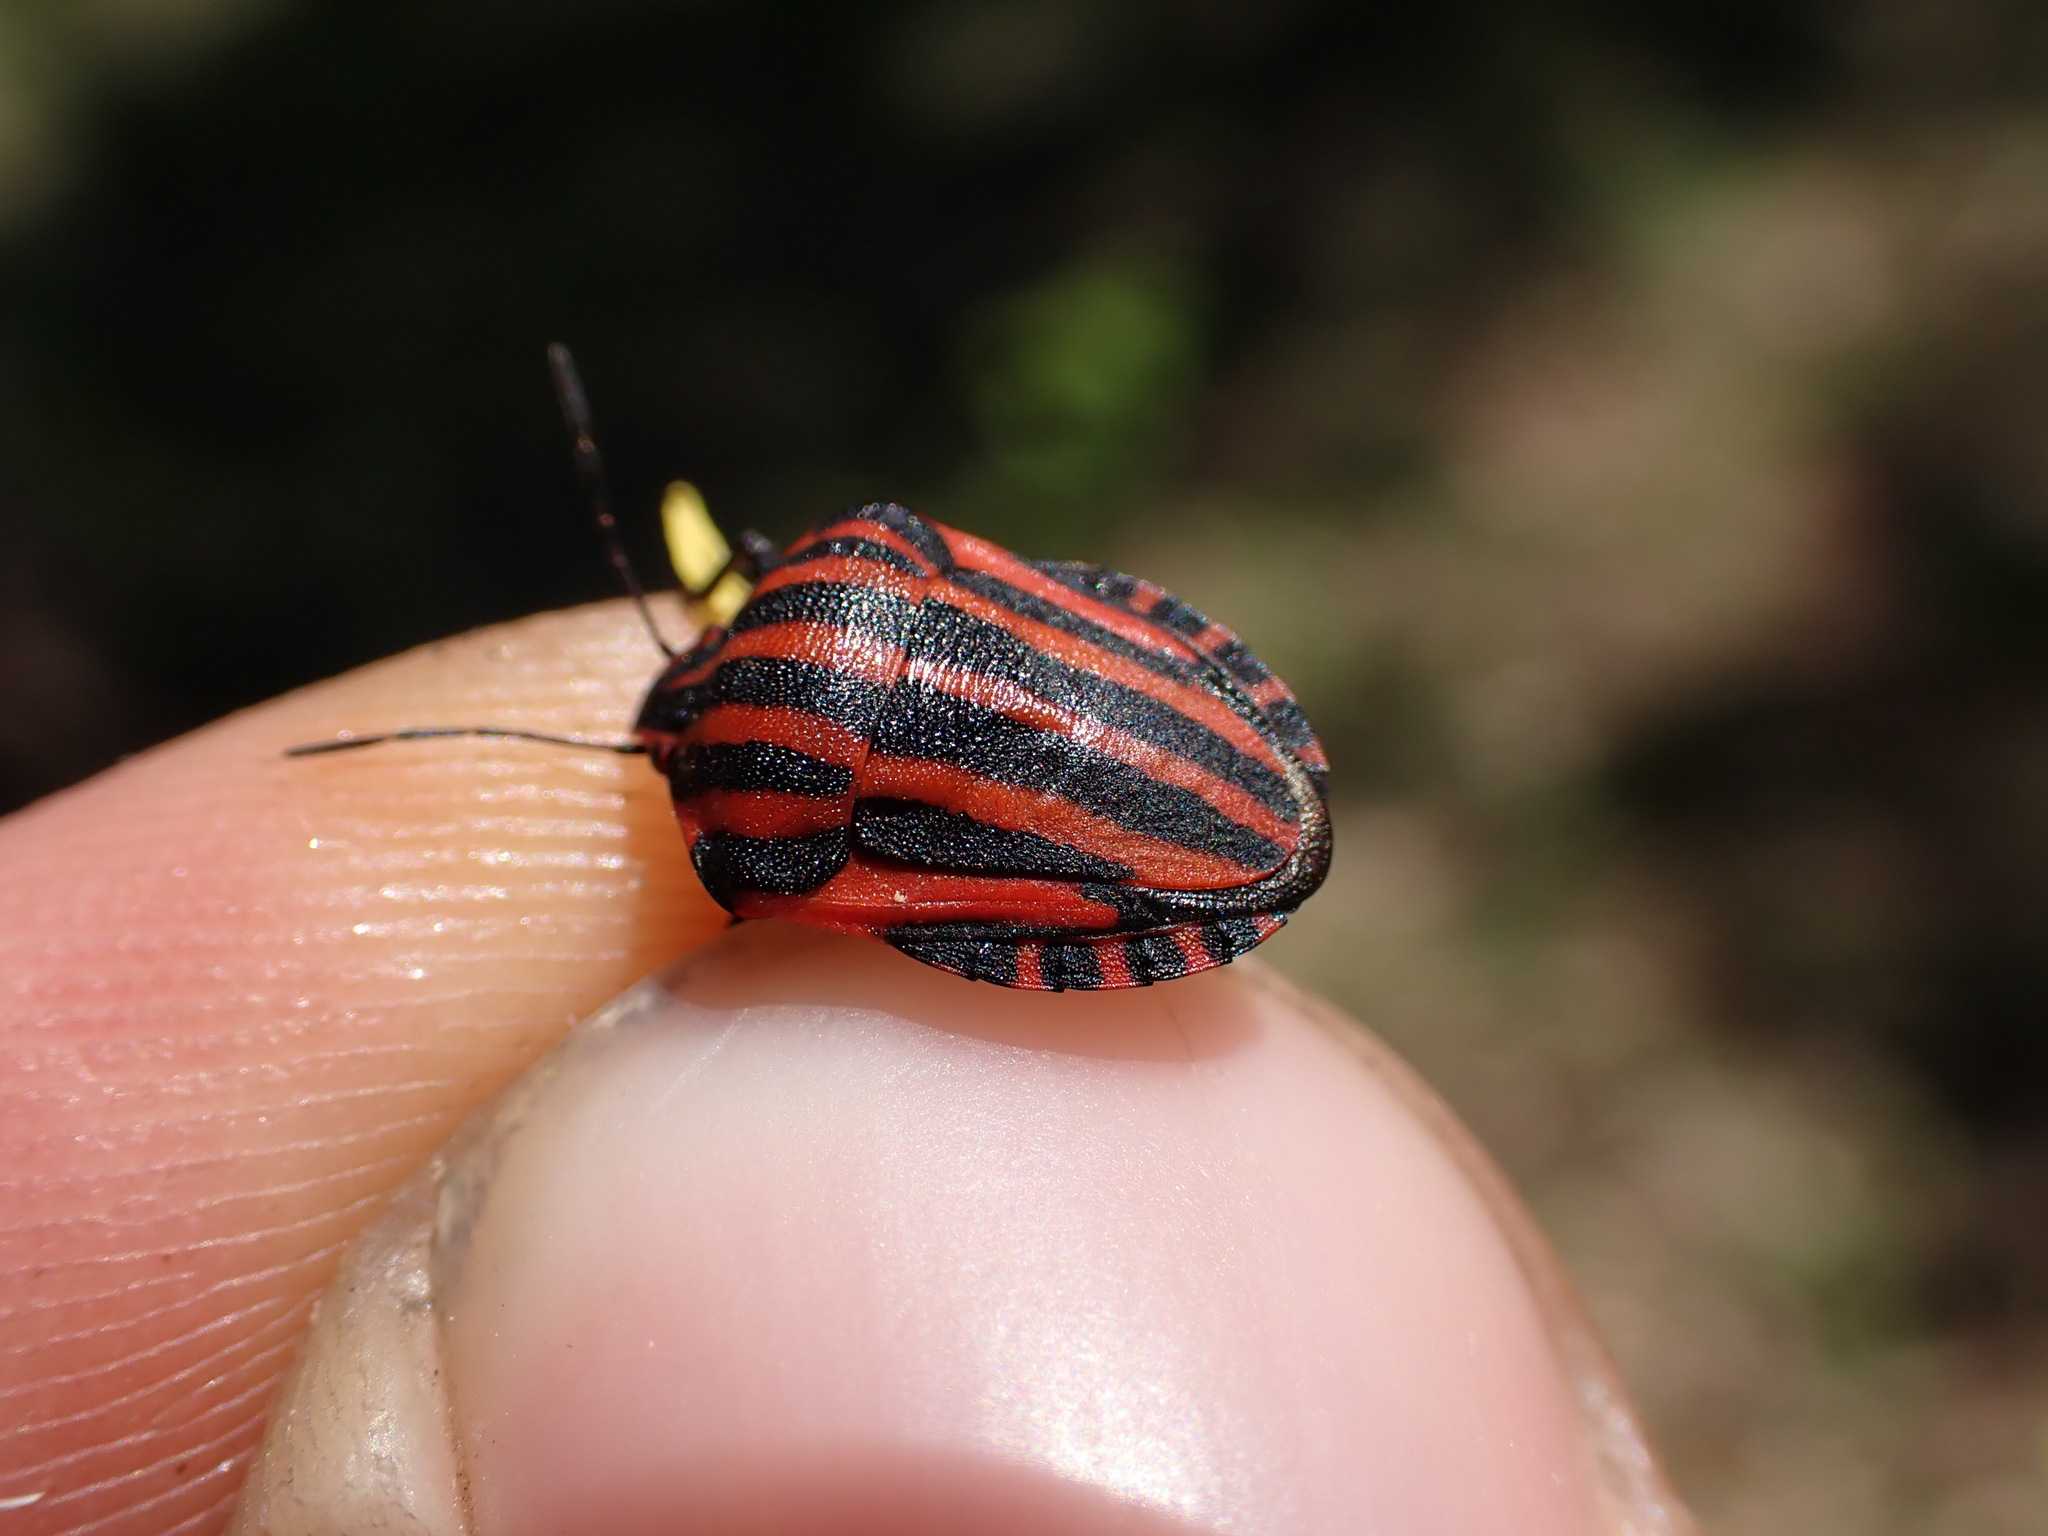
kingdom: Animalia
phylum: Arthropoda
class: Insecta
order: Hemiptera
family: Pentatomidae
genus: Graphosoma
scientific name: Graphosoma italicum
